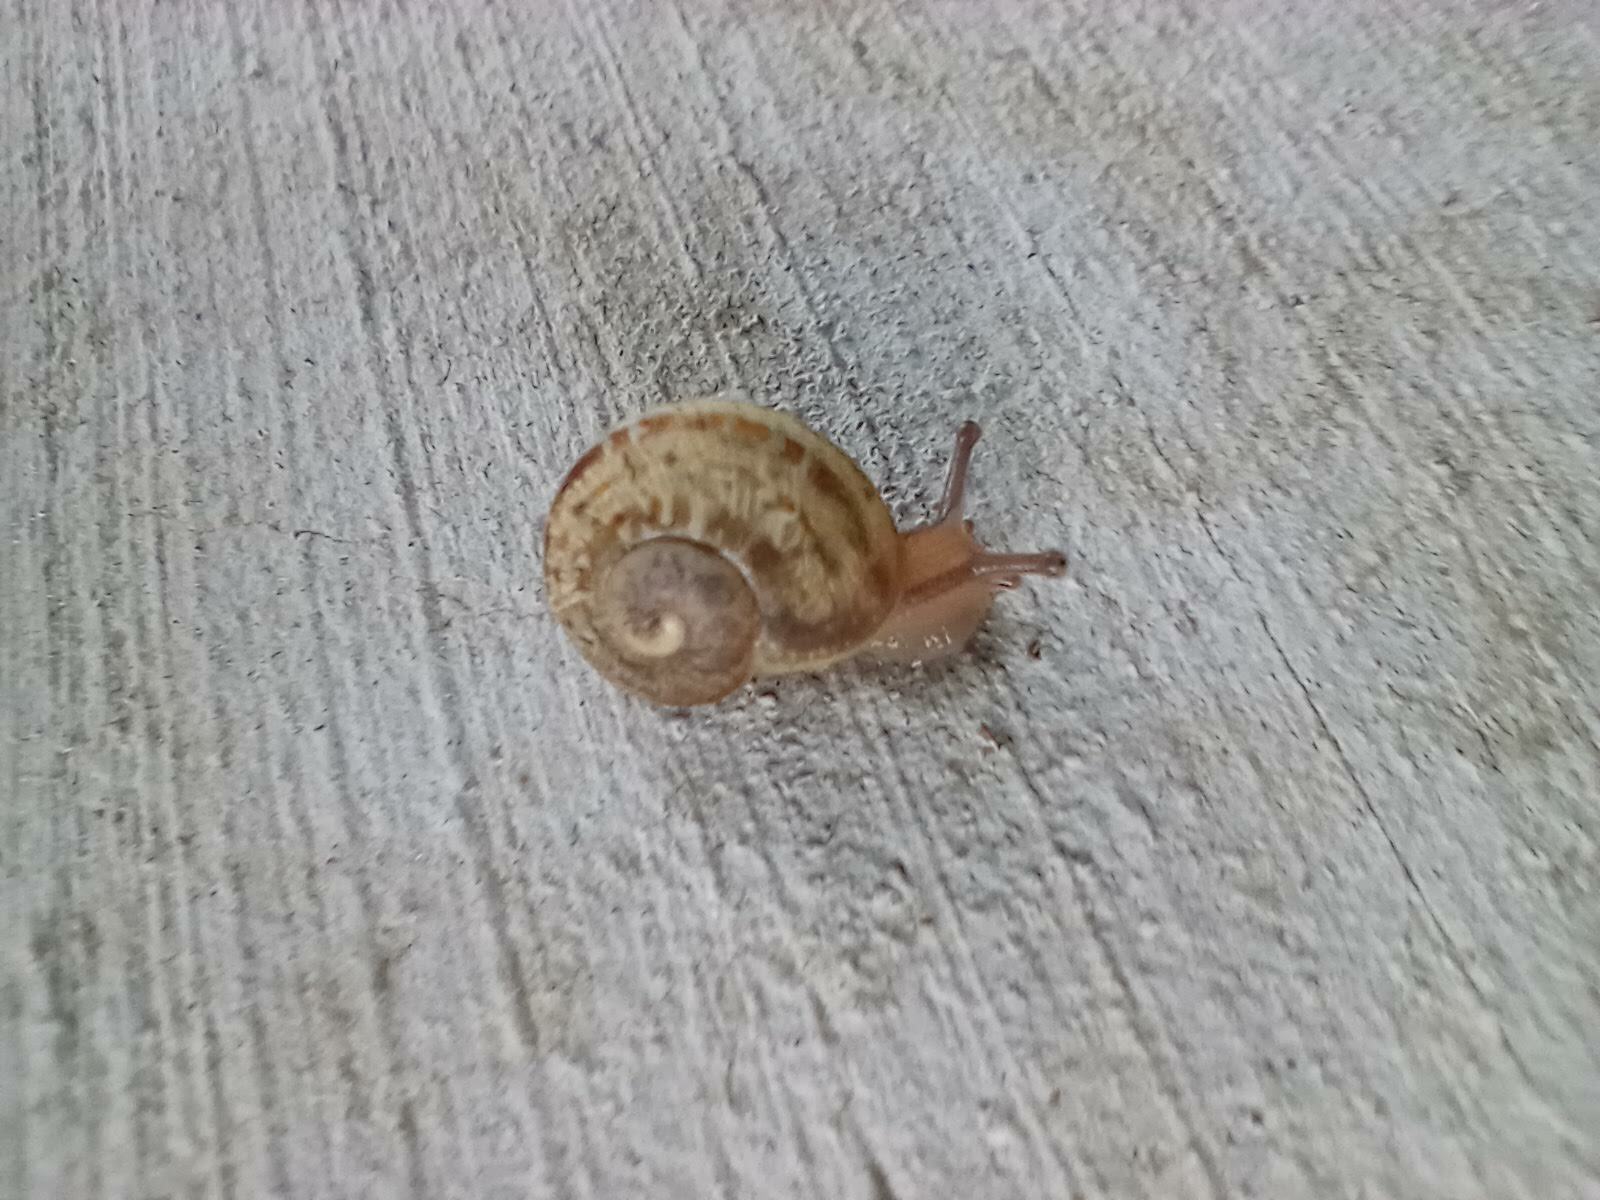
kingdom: Animalia
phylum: Mollusca
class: Gastropoda
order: Stylommatophora
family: Helicidae
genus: Cornu
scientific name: Cornu aspersum
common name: Brown garden snail
